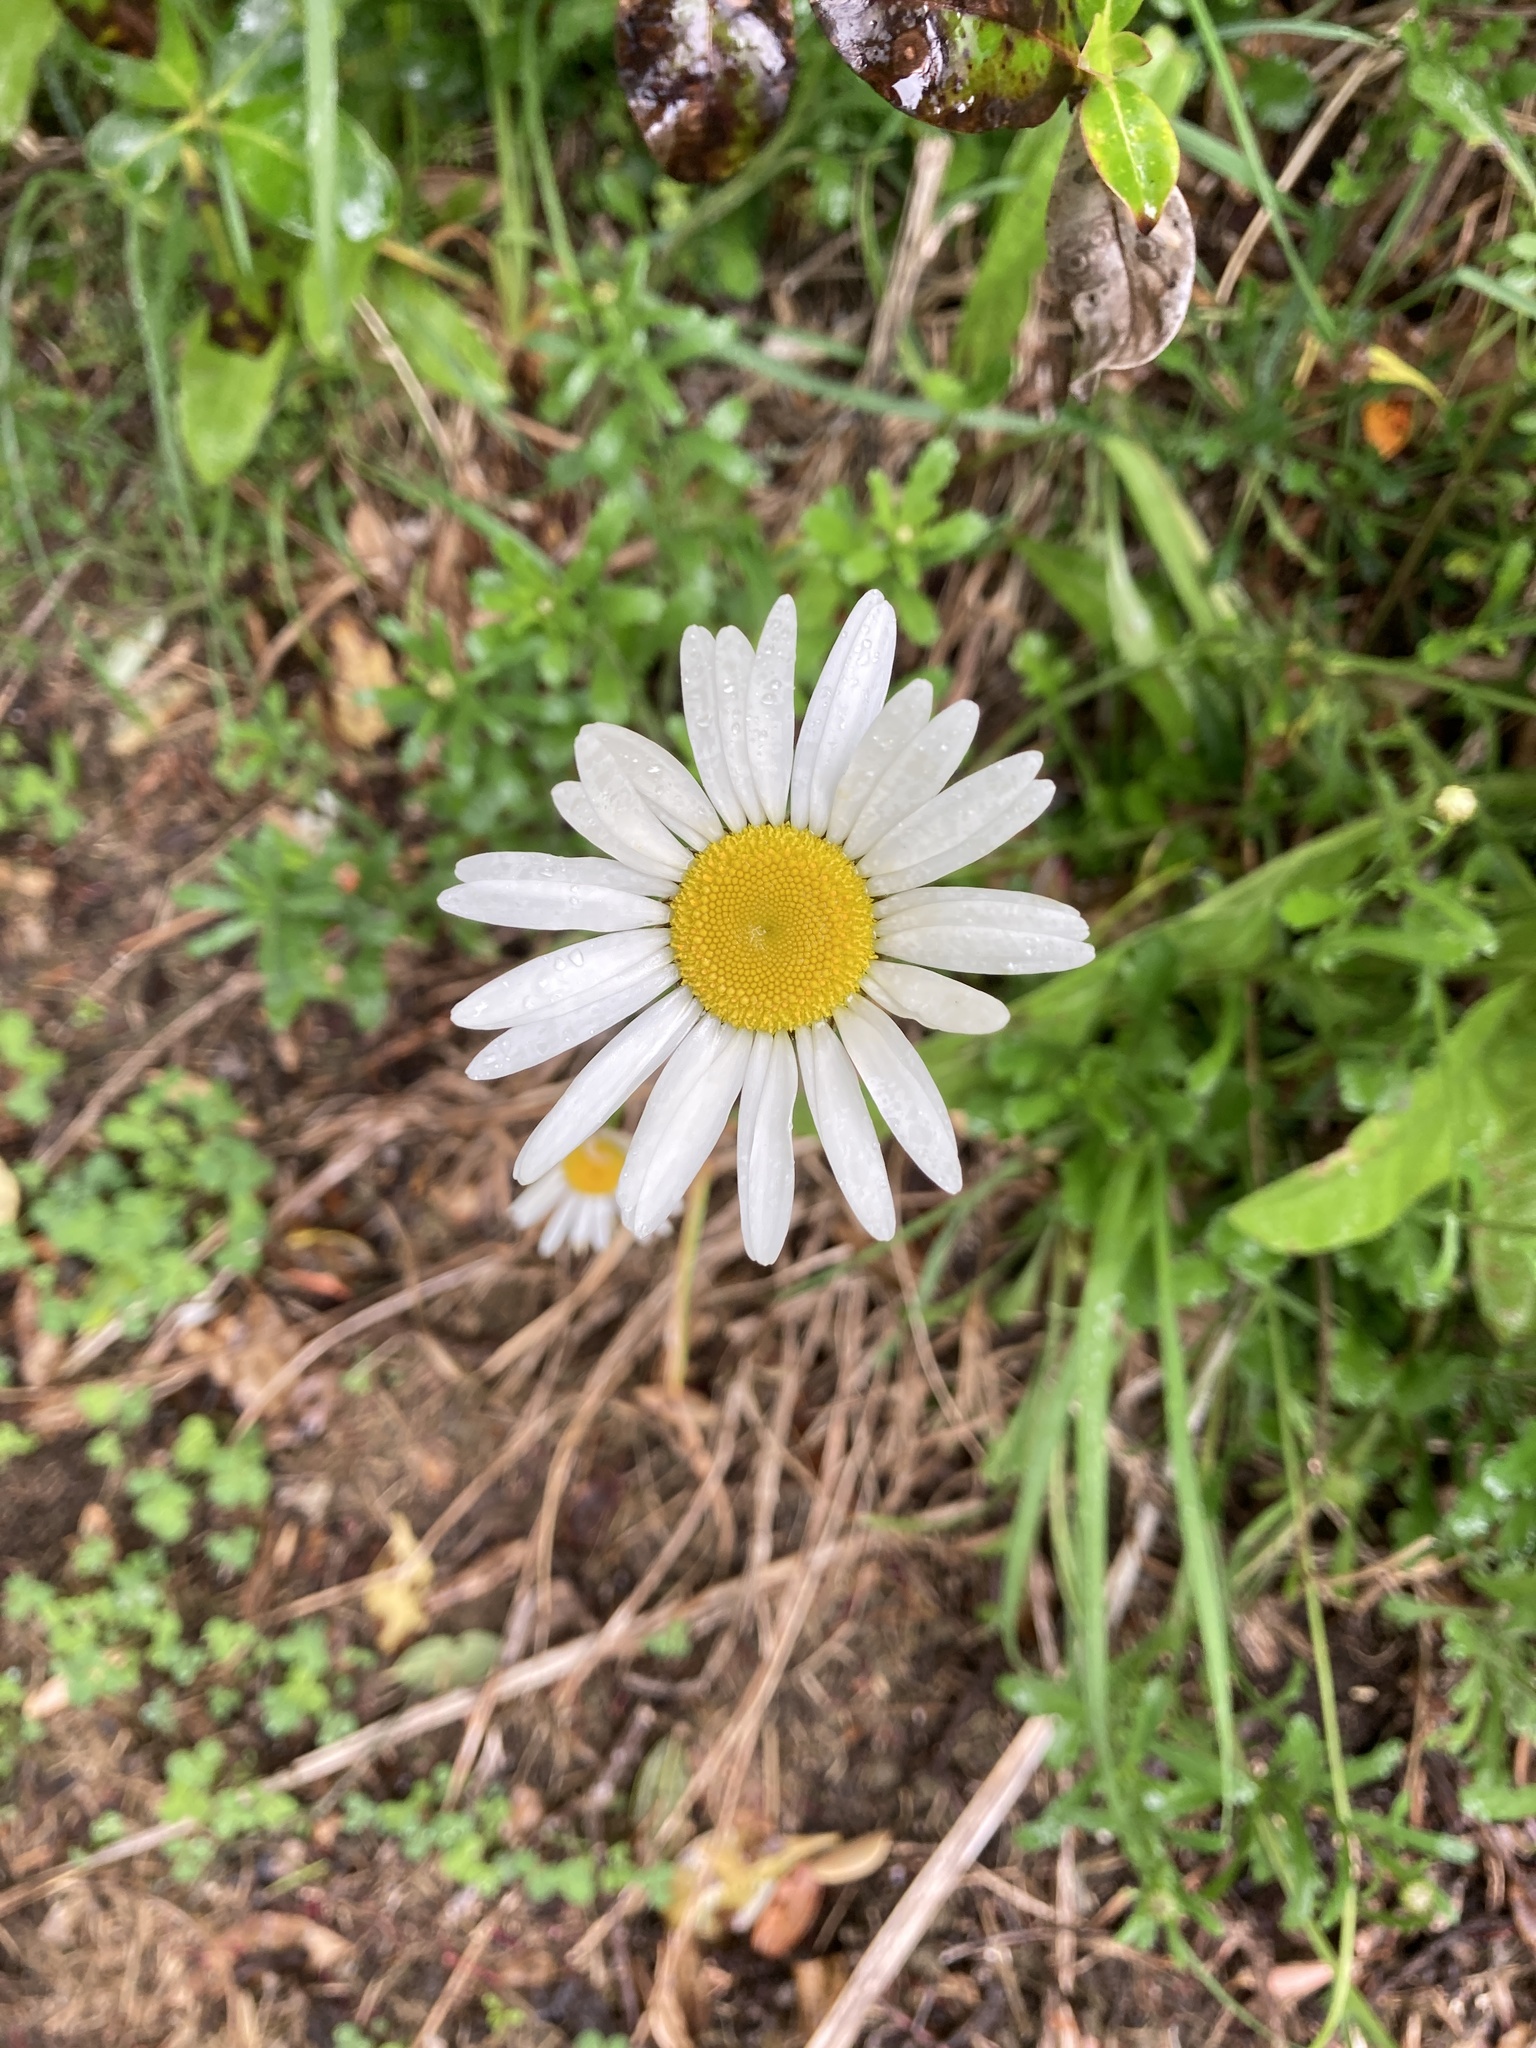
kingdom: Plantae
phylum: Tracheophyta
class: Magnoliopsida
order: Asterales
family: Asteraceae
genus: Leucanthemum
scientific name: Leucanthemum vulgare
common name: Oxeye daisy
